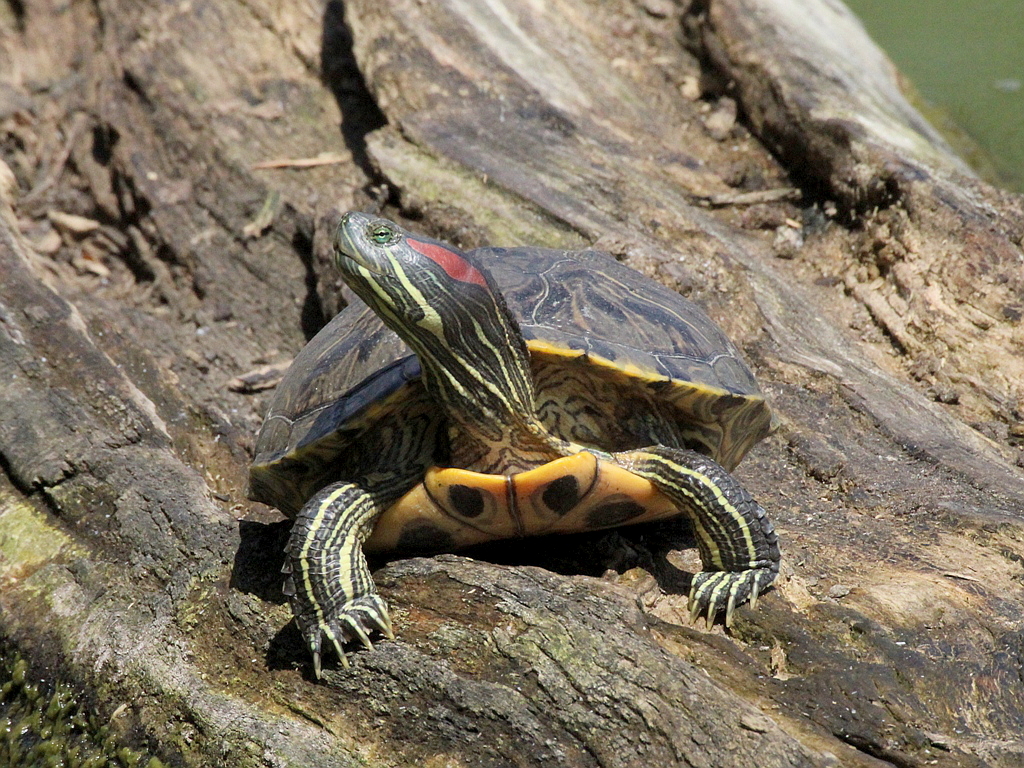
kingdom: Animalia
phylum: Chordata
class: Testudines
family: Emydidae
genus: Trachemys
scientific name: Trachemys scripta
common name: Slider
